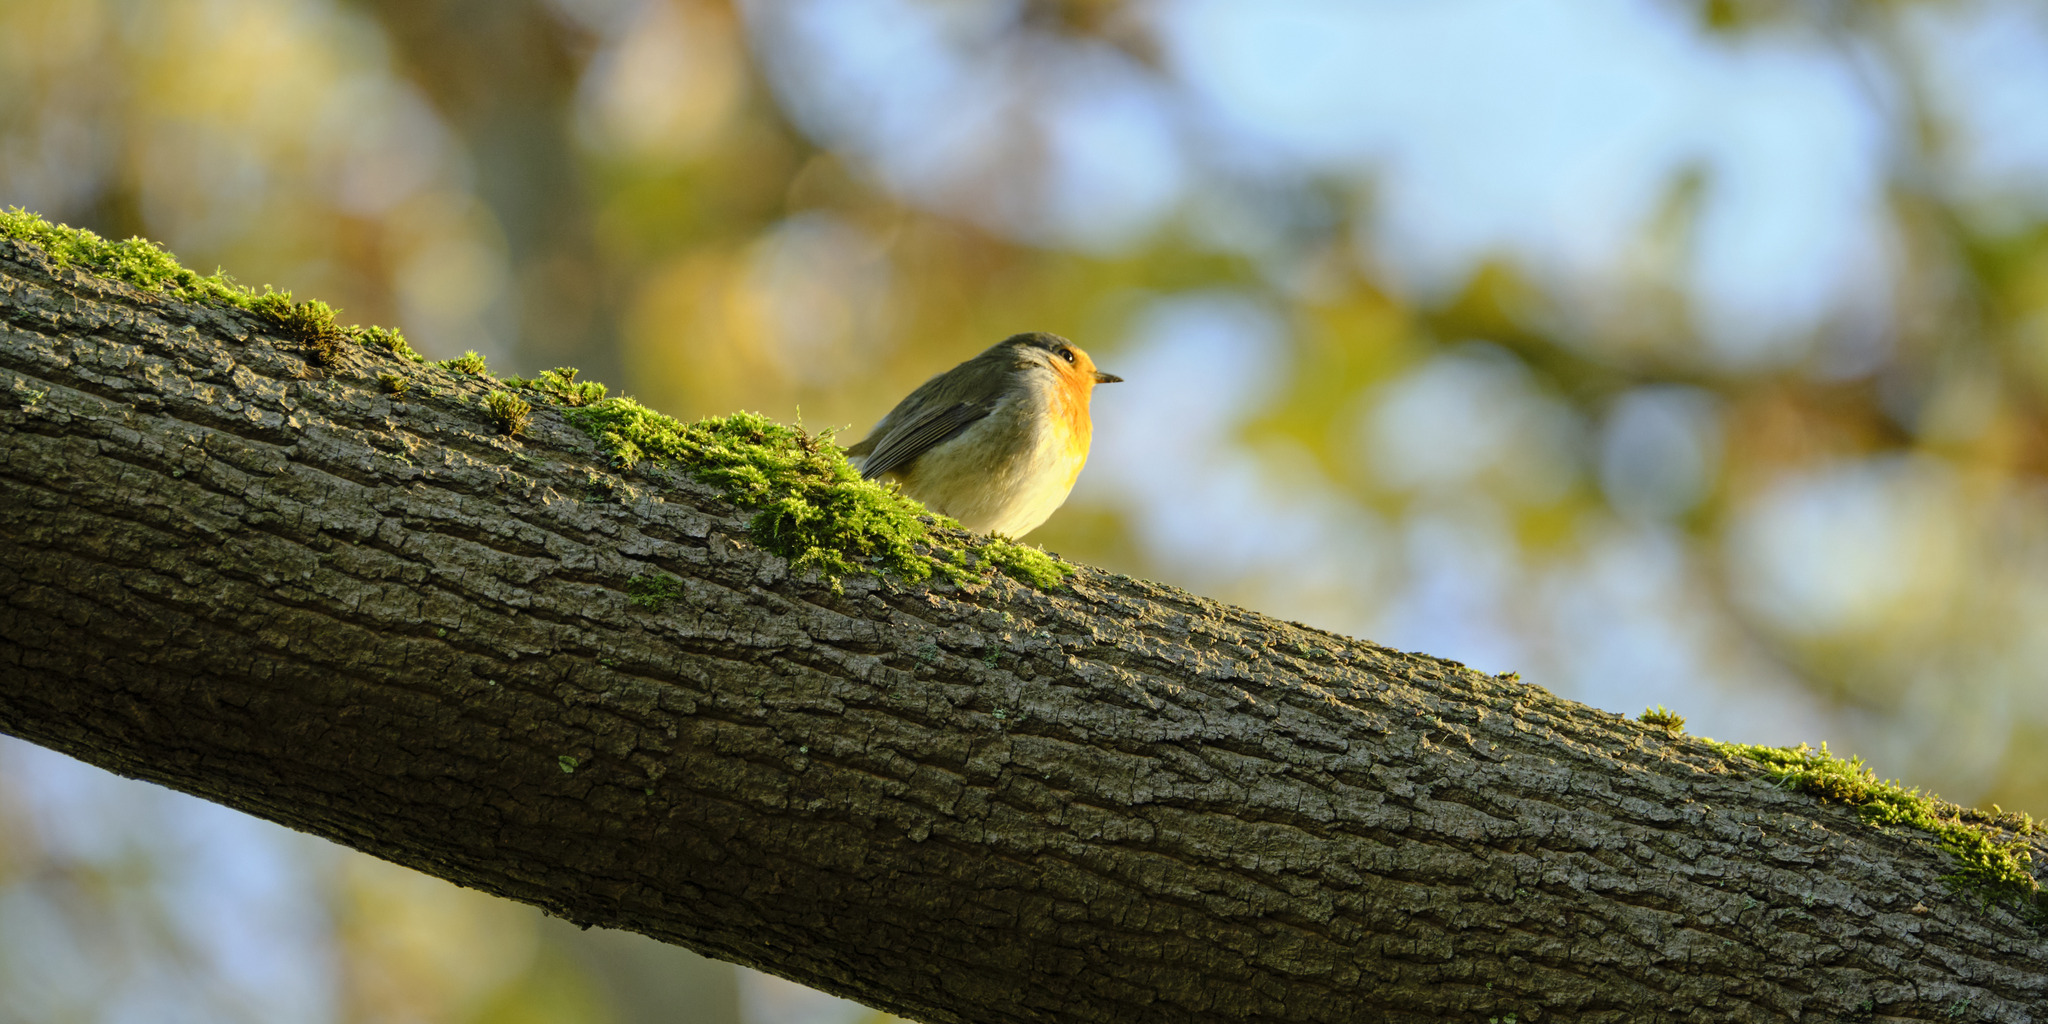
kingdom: Animalia
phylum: Chordata
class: Aves
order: Passeriformes
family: Muscicapidae
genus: Erithacus
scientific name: Erithacus rubecula
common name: European robin
